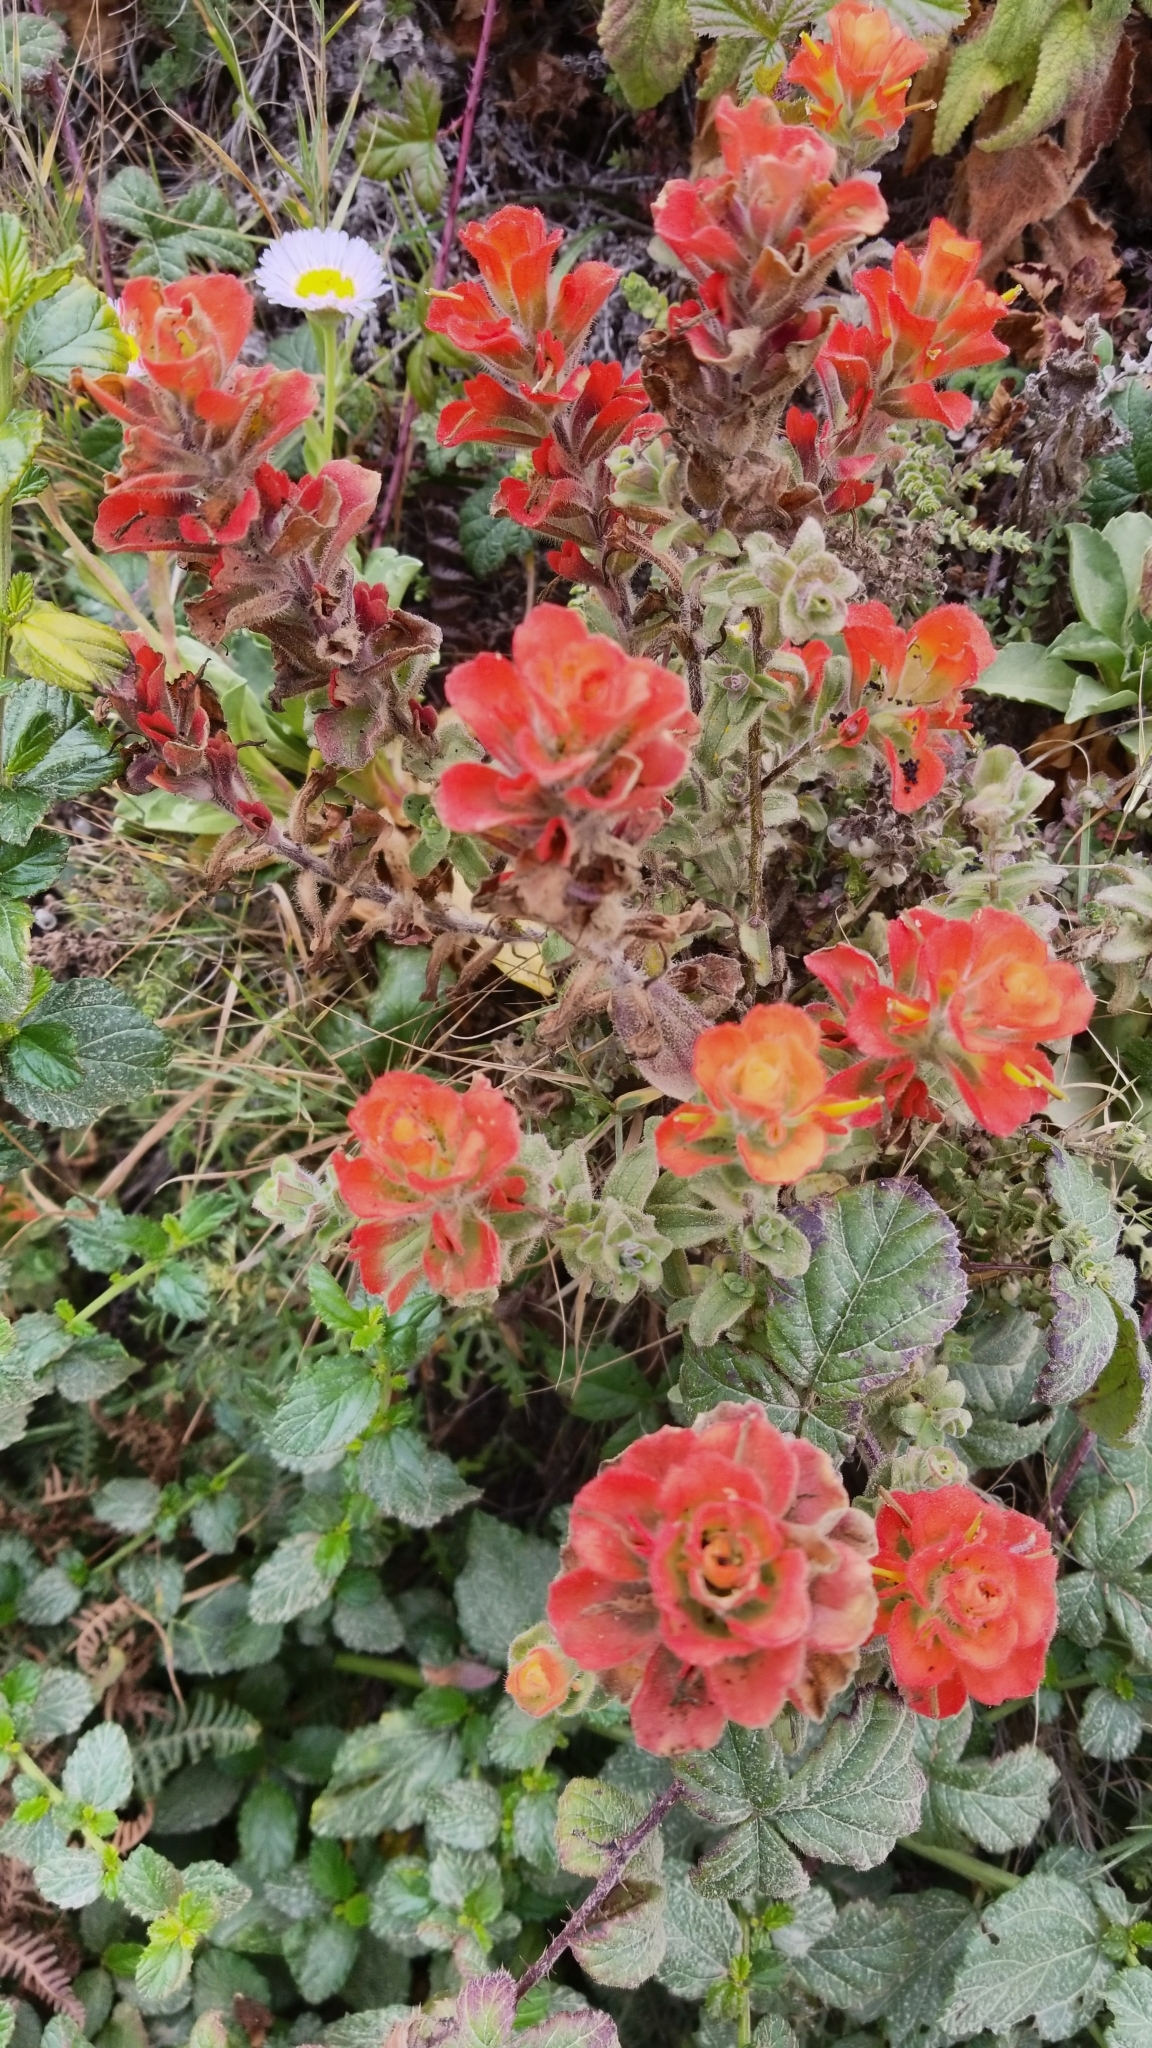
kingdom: Plantae
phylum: Tracheophyta
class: Magnoliopsida
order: Lamiales
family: Orobanchaceae
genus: Castilleja
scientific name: Castilleja latifolia
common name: Monterey indian paintbrush
